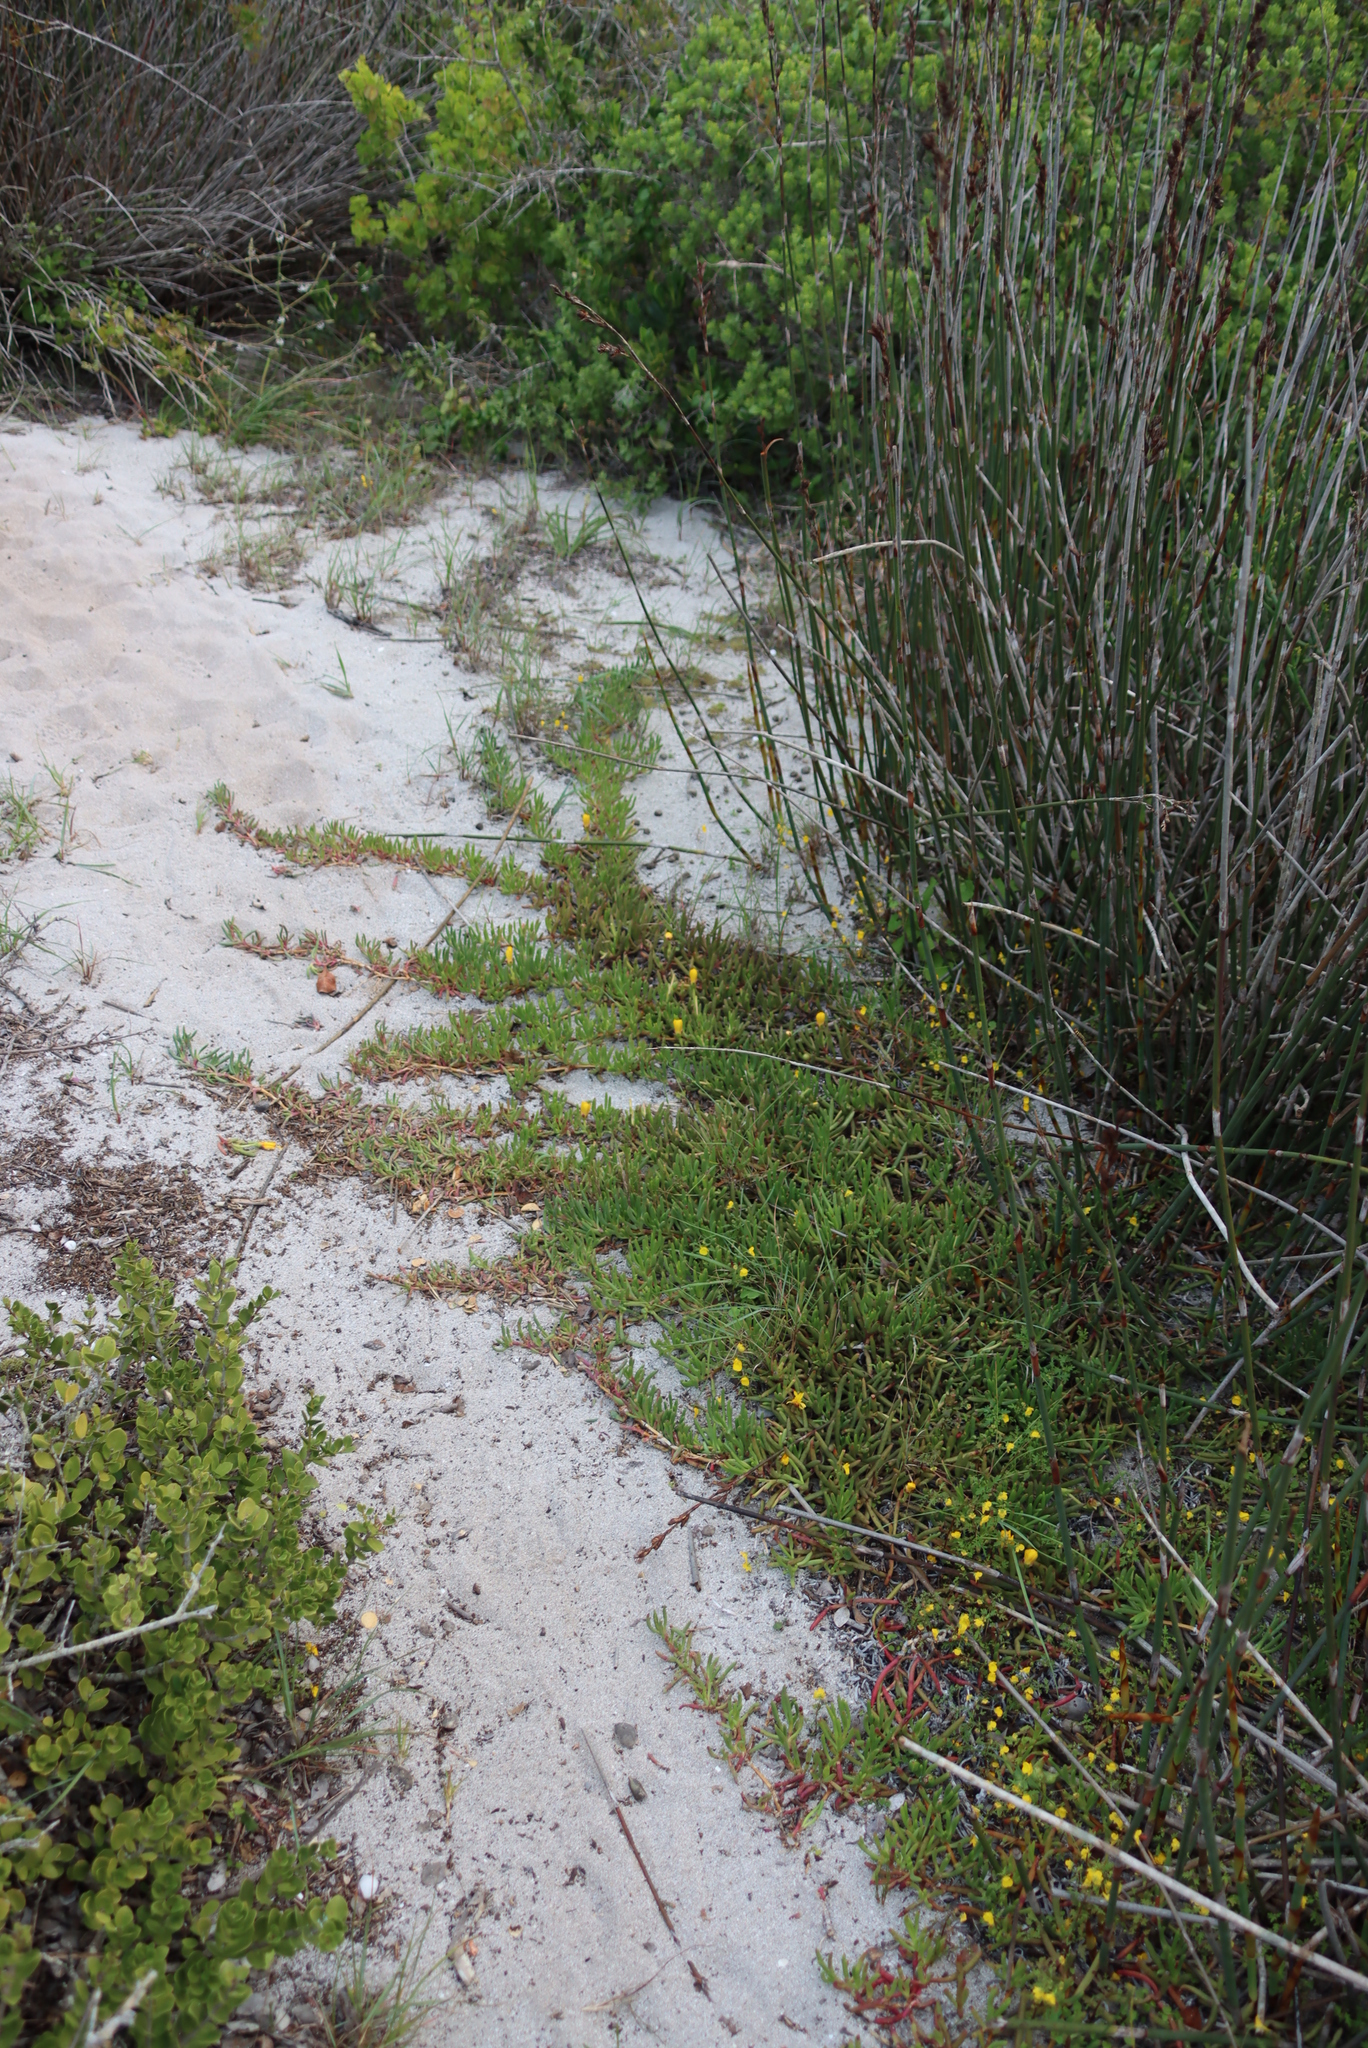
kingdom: Plantae
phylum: Tracheophyta
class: Magnoliopsida
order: Caryophyllales
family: Aizoaceae
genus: Jordaaniella
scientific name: Jordaaniella dubia
